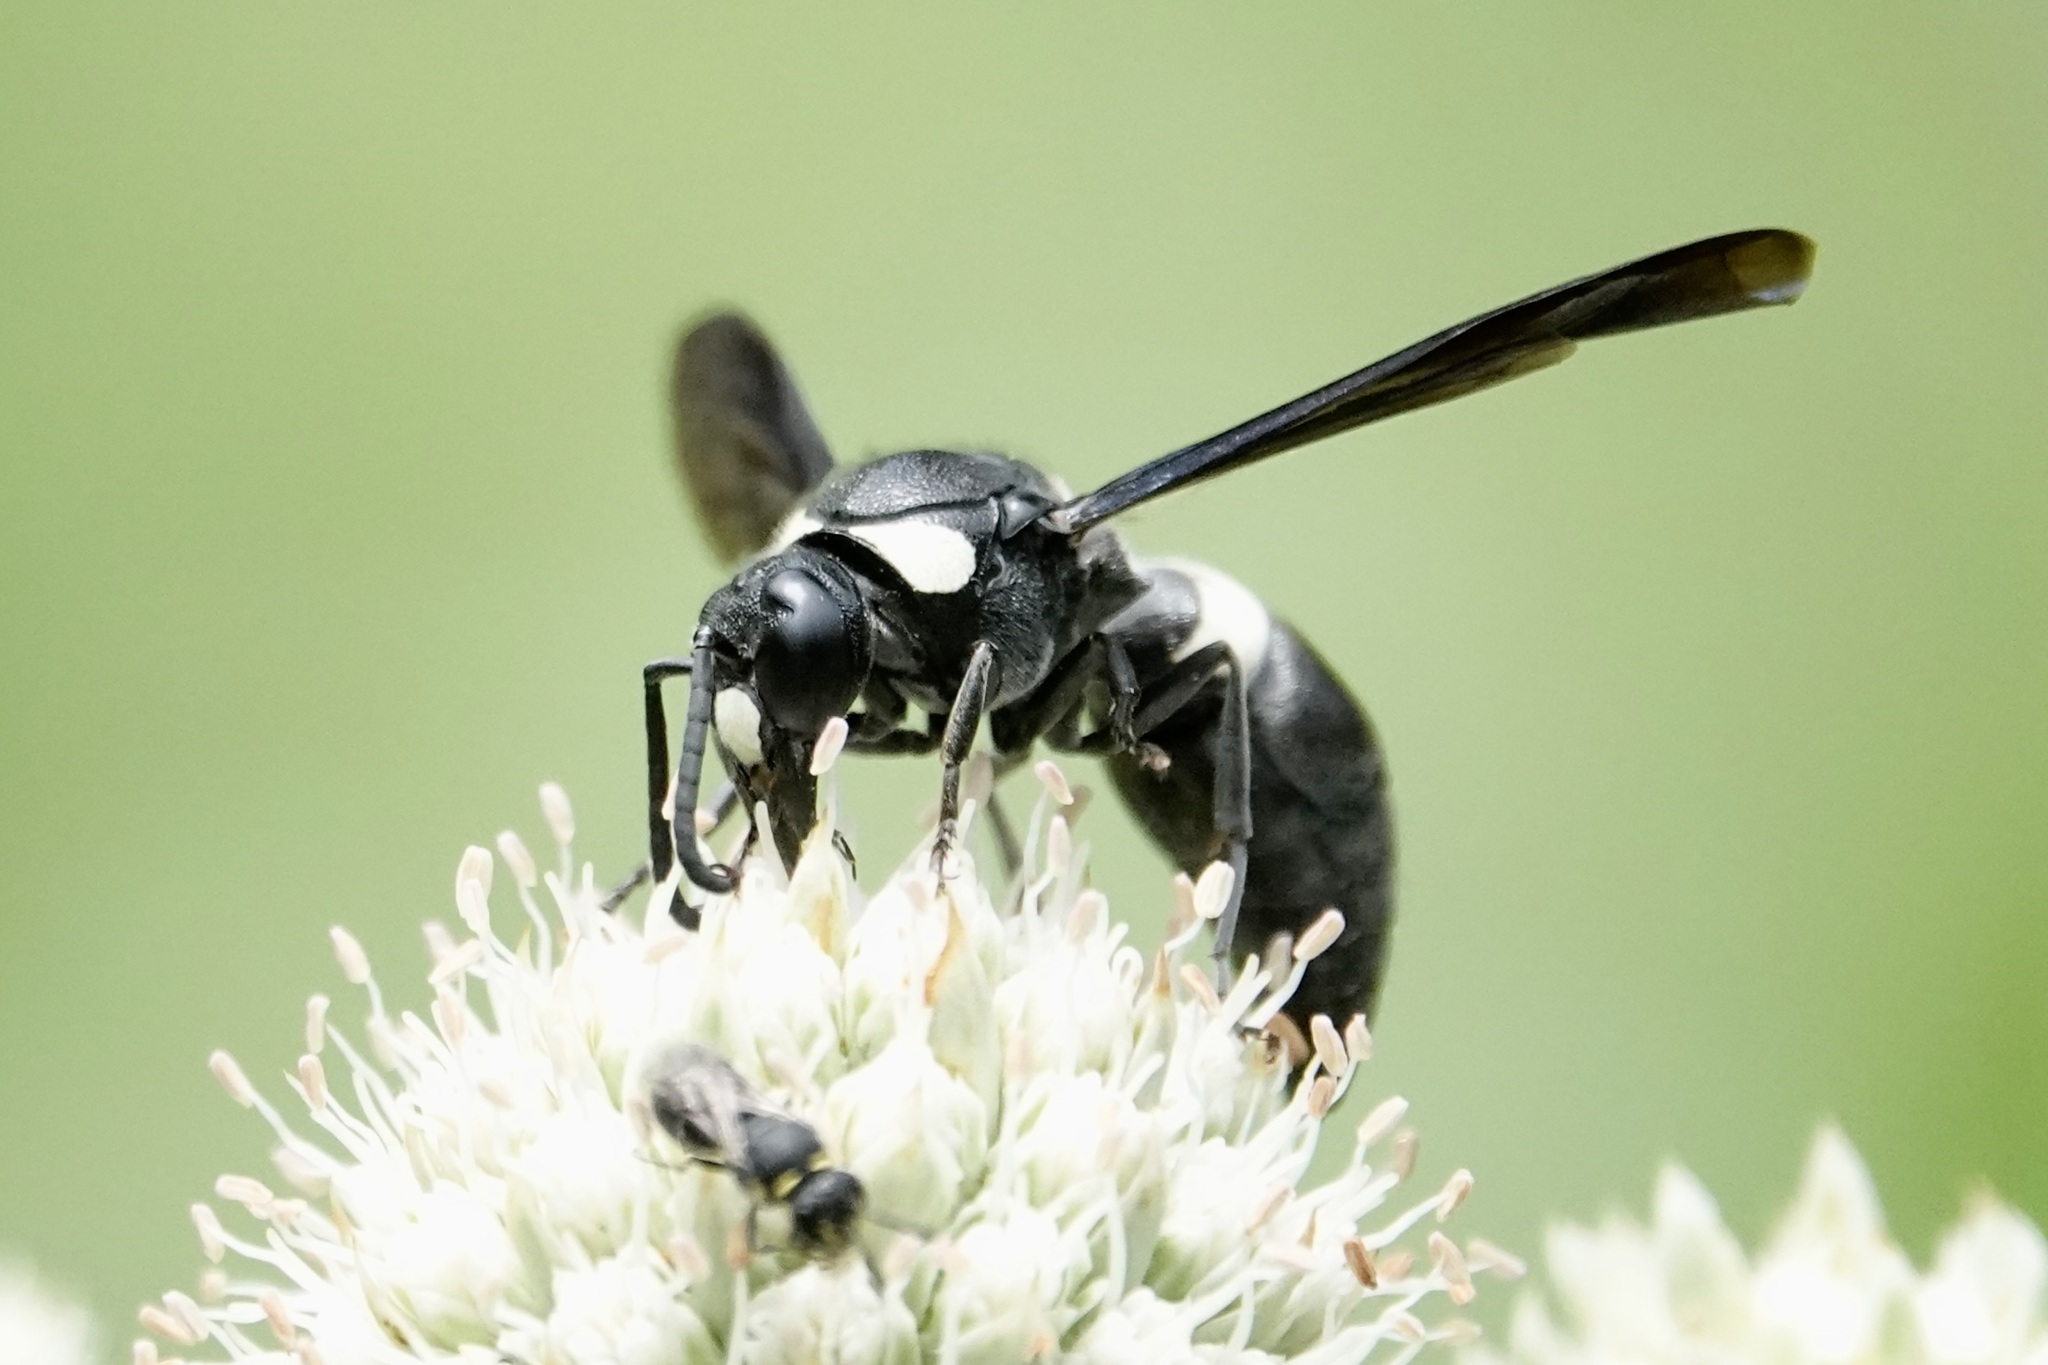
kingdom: Animalia
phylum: Arthropoda
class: Insecta
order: Hymenoptera
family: Eumenidae
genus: Monobia
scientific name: Monobia quadridens
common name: Four-toothed mason wasp
